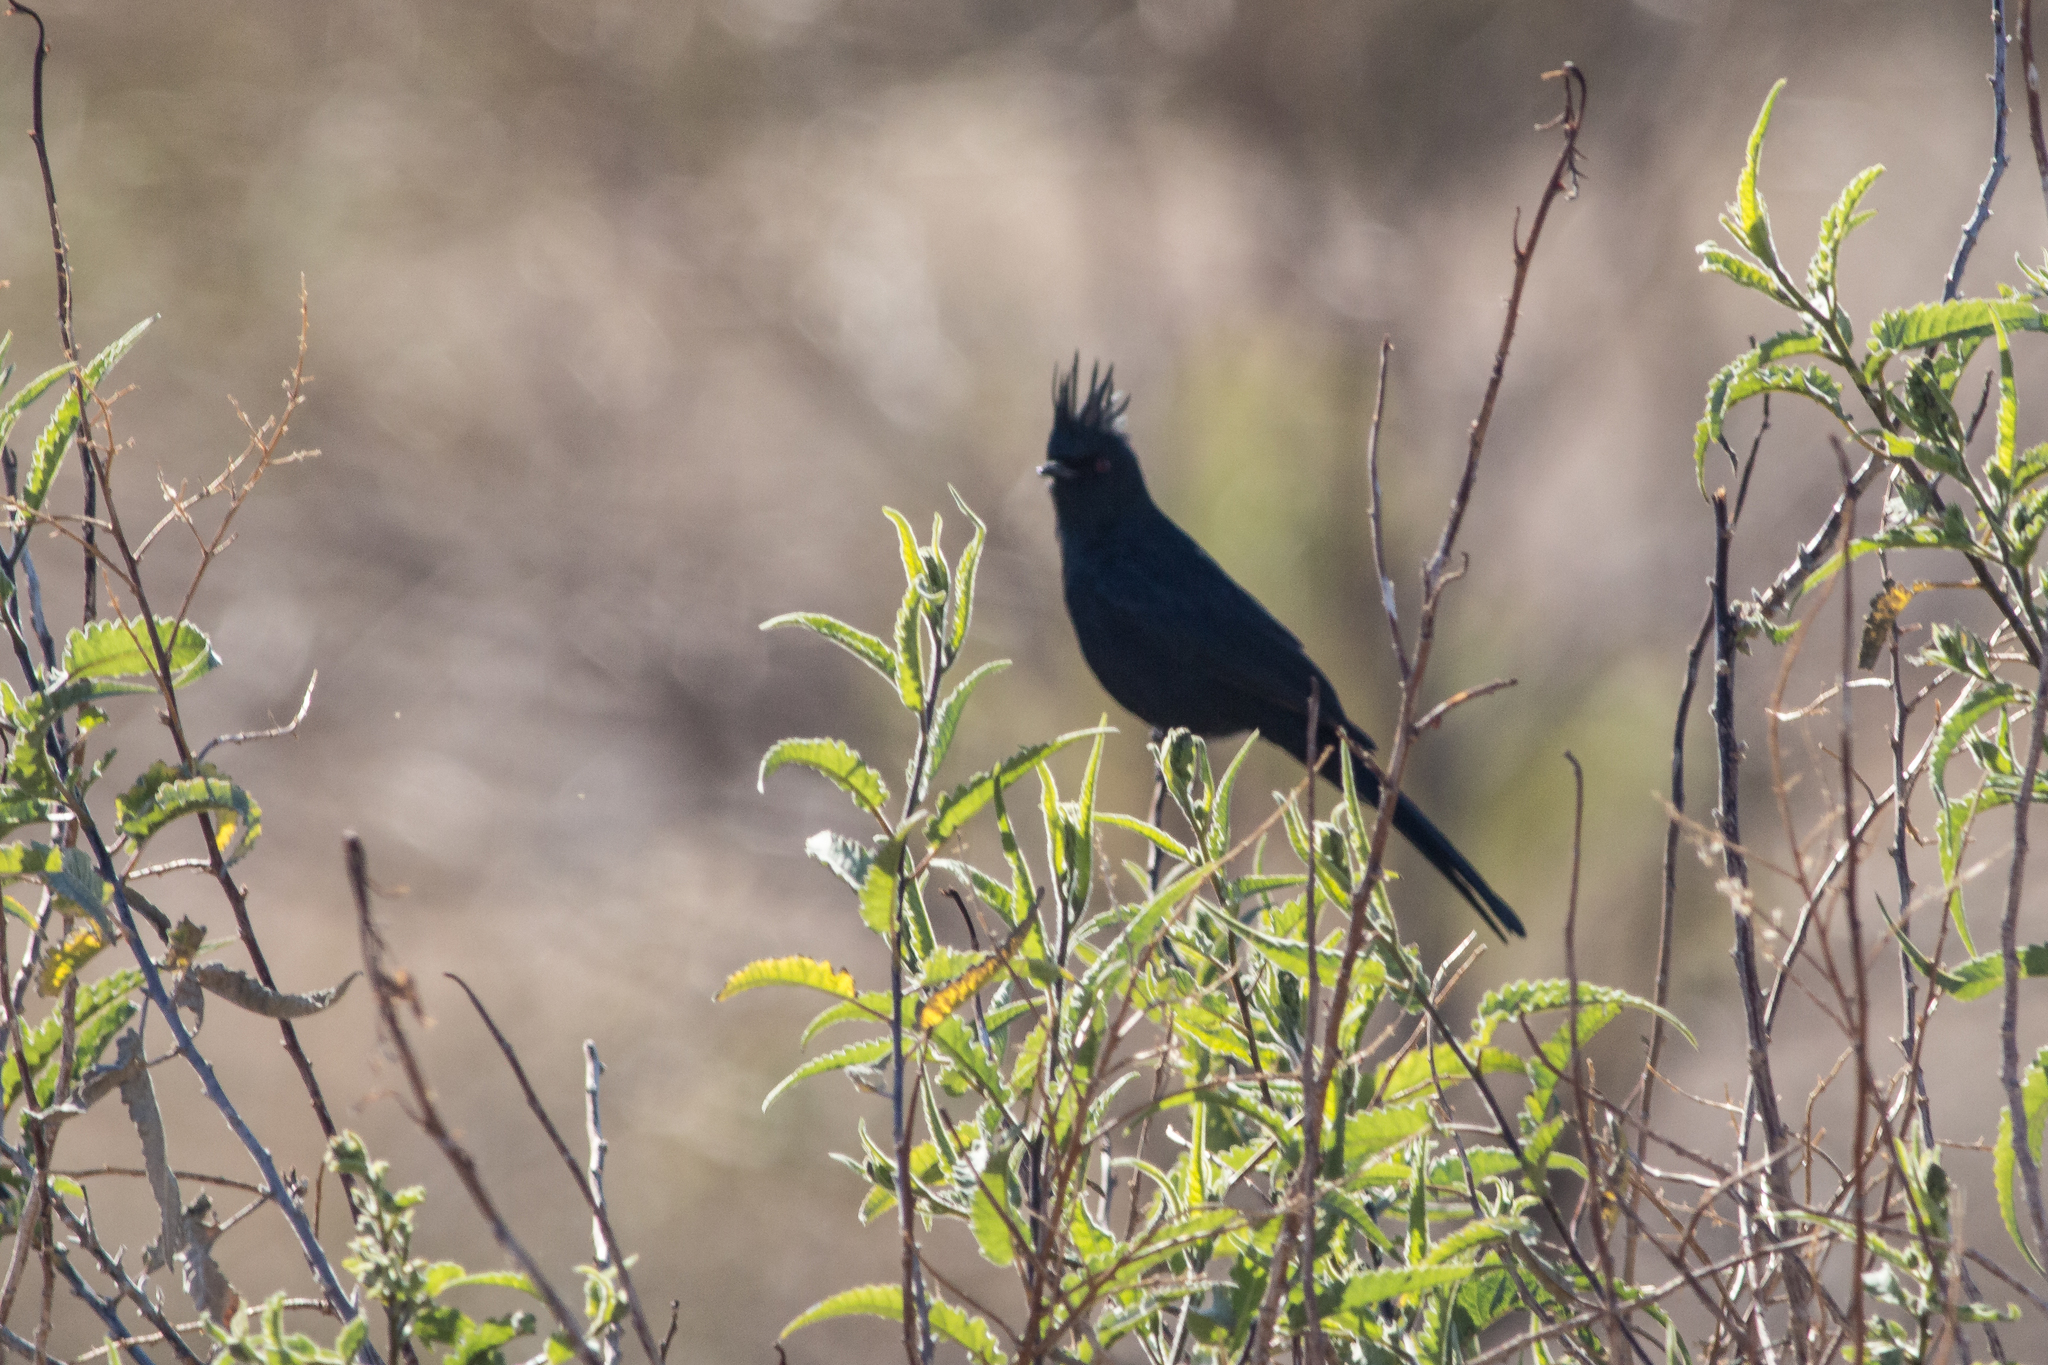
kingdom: Animalia
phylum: Chordata
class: Aves
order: Passeriformes
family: Ptilogonatidae
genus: Phainopepla
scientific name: Phainopepla nitens
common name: Phainopepla
